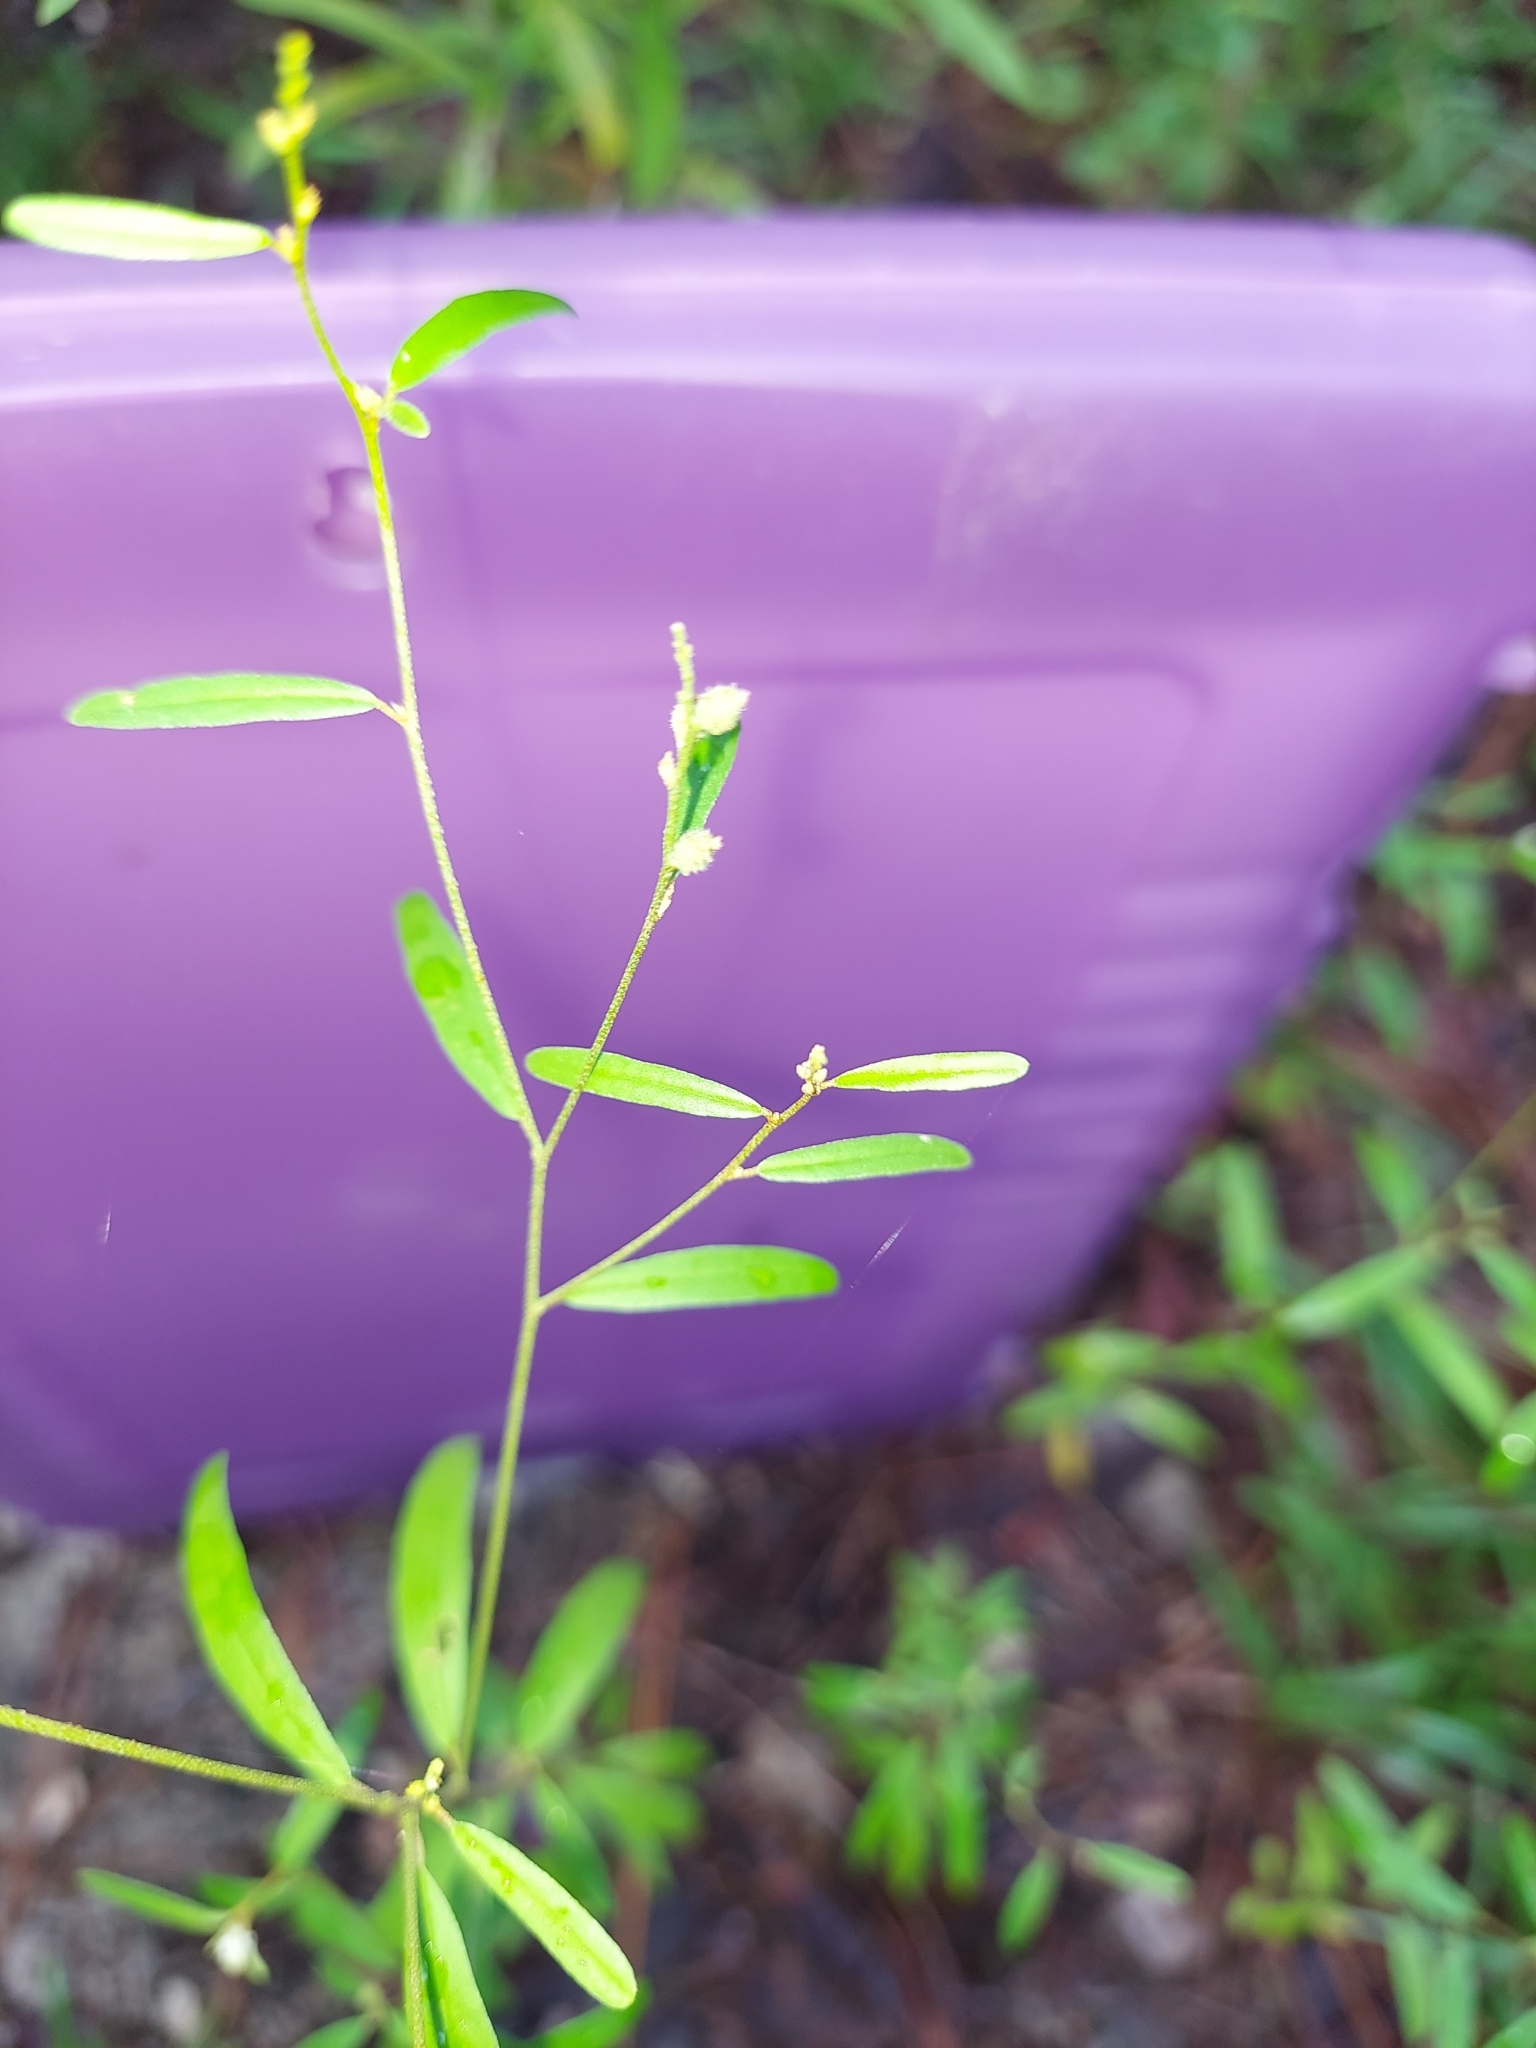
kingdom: Plantae
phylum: Tracheophyta
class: Magnoliopsida
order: Malpighiales
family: Euphorbiaceae
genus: Croton
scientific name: Croton michauxii
